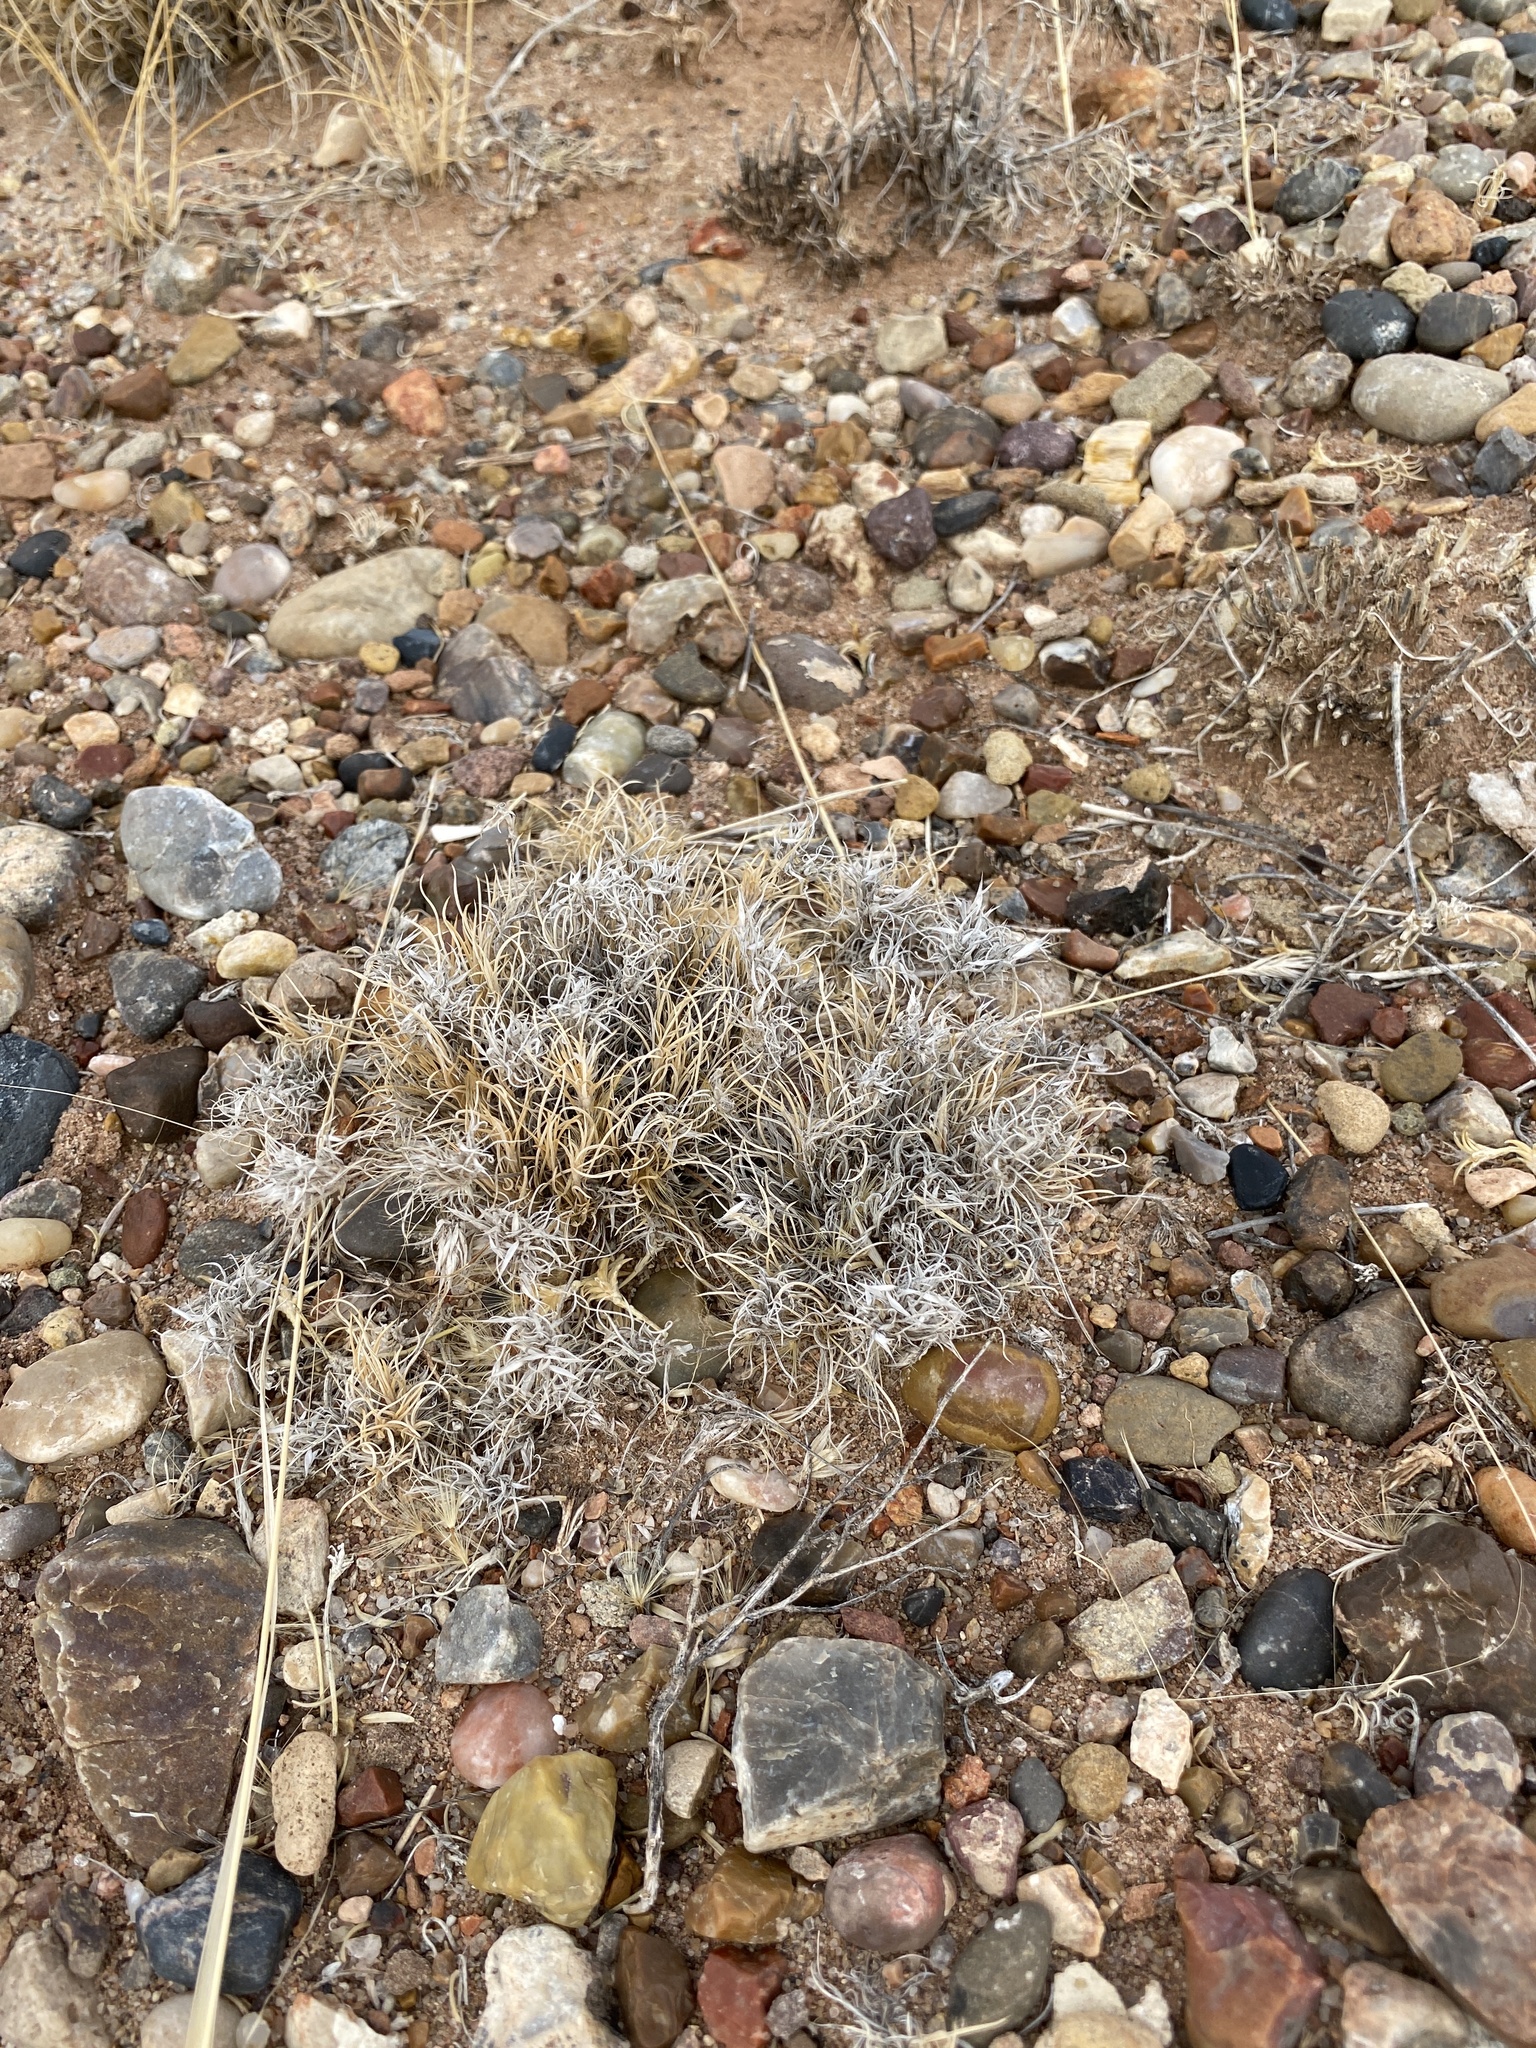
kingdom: Plantae
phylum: Tracheophyta
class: Liliopsida
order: Poales
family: Poaceae
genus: Dasyochloa
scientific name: Dasyochloa pulchella
